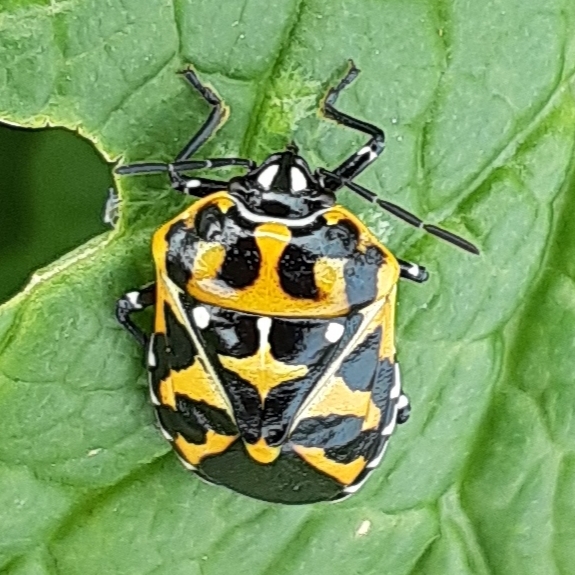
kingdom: Animalia
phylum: Arthropoda
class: Insecta
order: Hemiptera
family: Pentatomidae
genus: Murgantia
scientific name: Murgantia histrionica
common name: Harlequin bug
